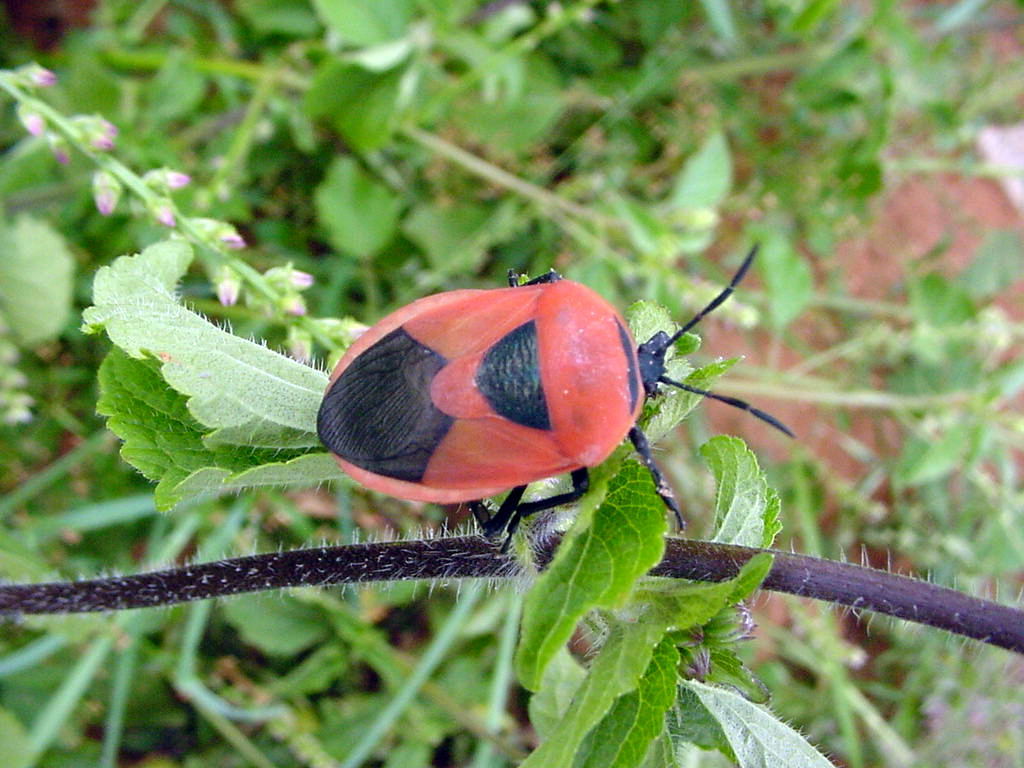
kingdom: Animalia
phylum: Arthropoda
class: Insecta
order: Hemiptera
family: Dinidoridae
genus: Coridius
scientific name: Coridius ianus
